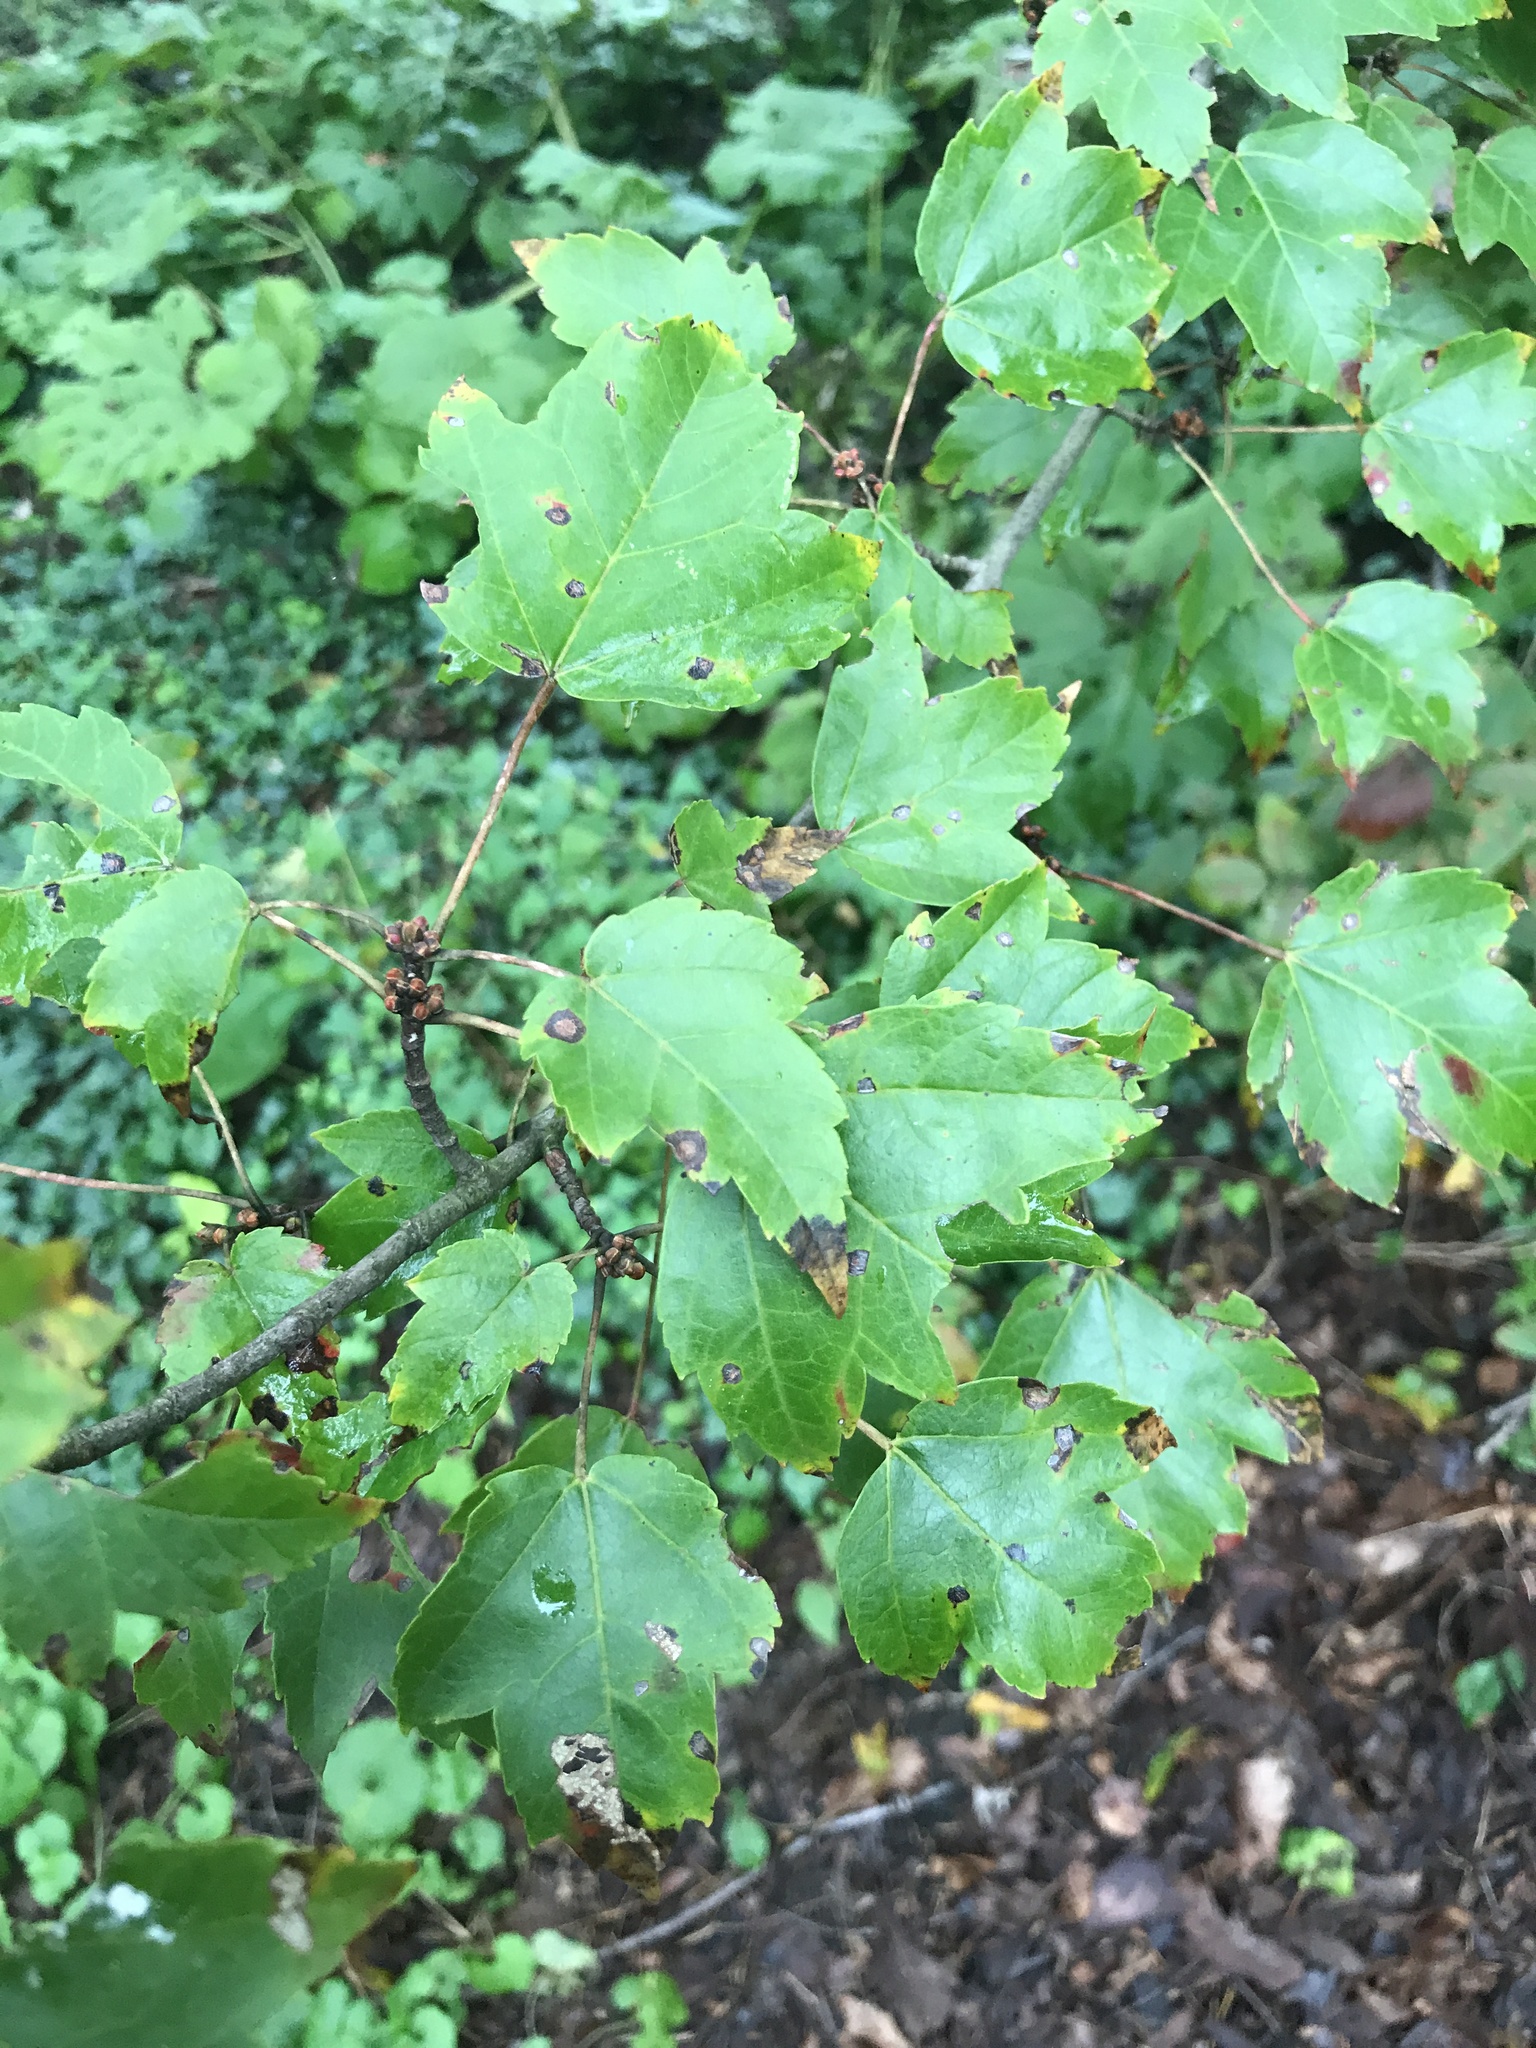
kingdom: Plantae
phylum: Tracheophyta
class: Magnoliopsida
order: Sapindales
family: Sapindaceae
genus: Acer
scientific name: Acer rubrum
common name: Red maple
